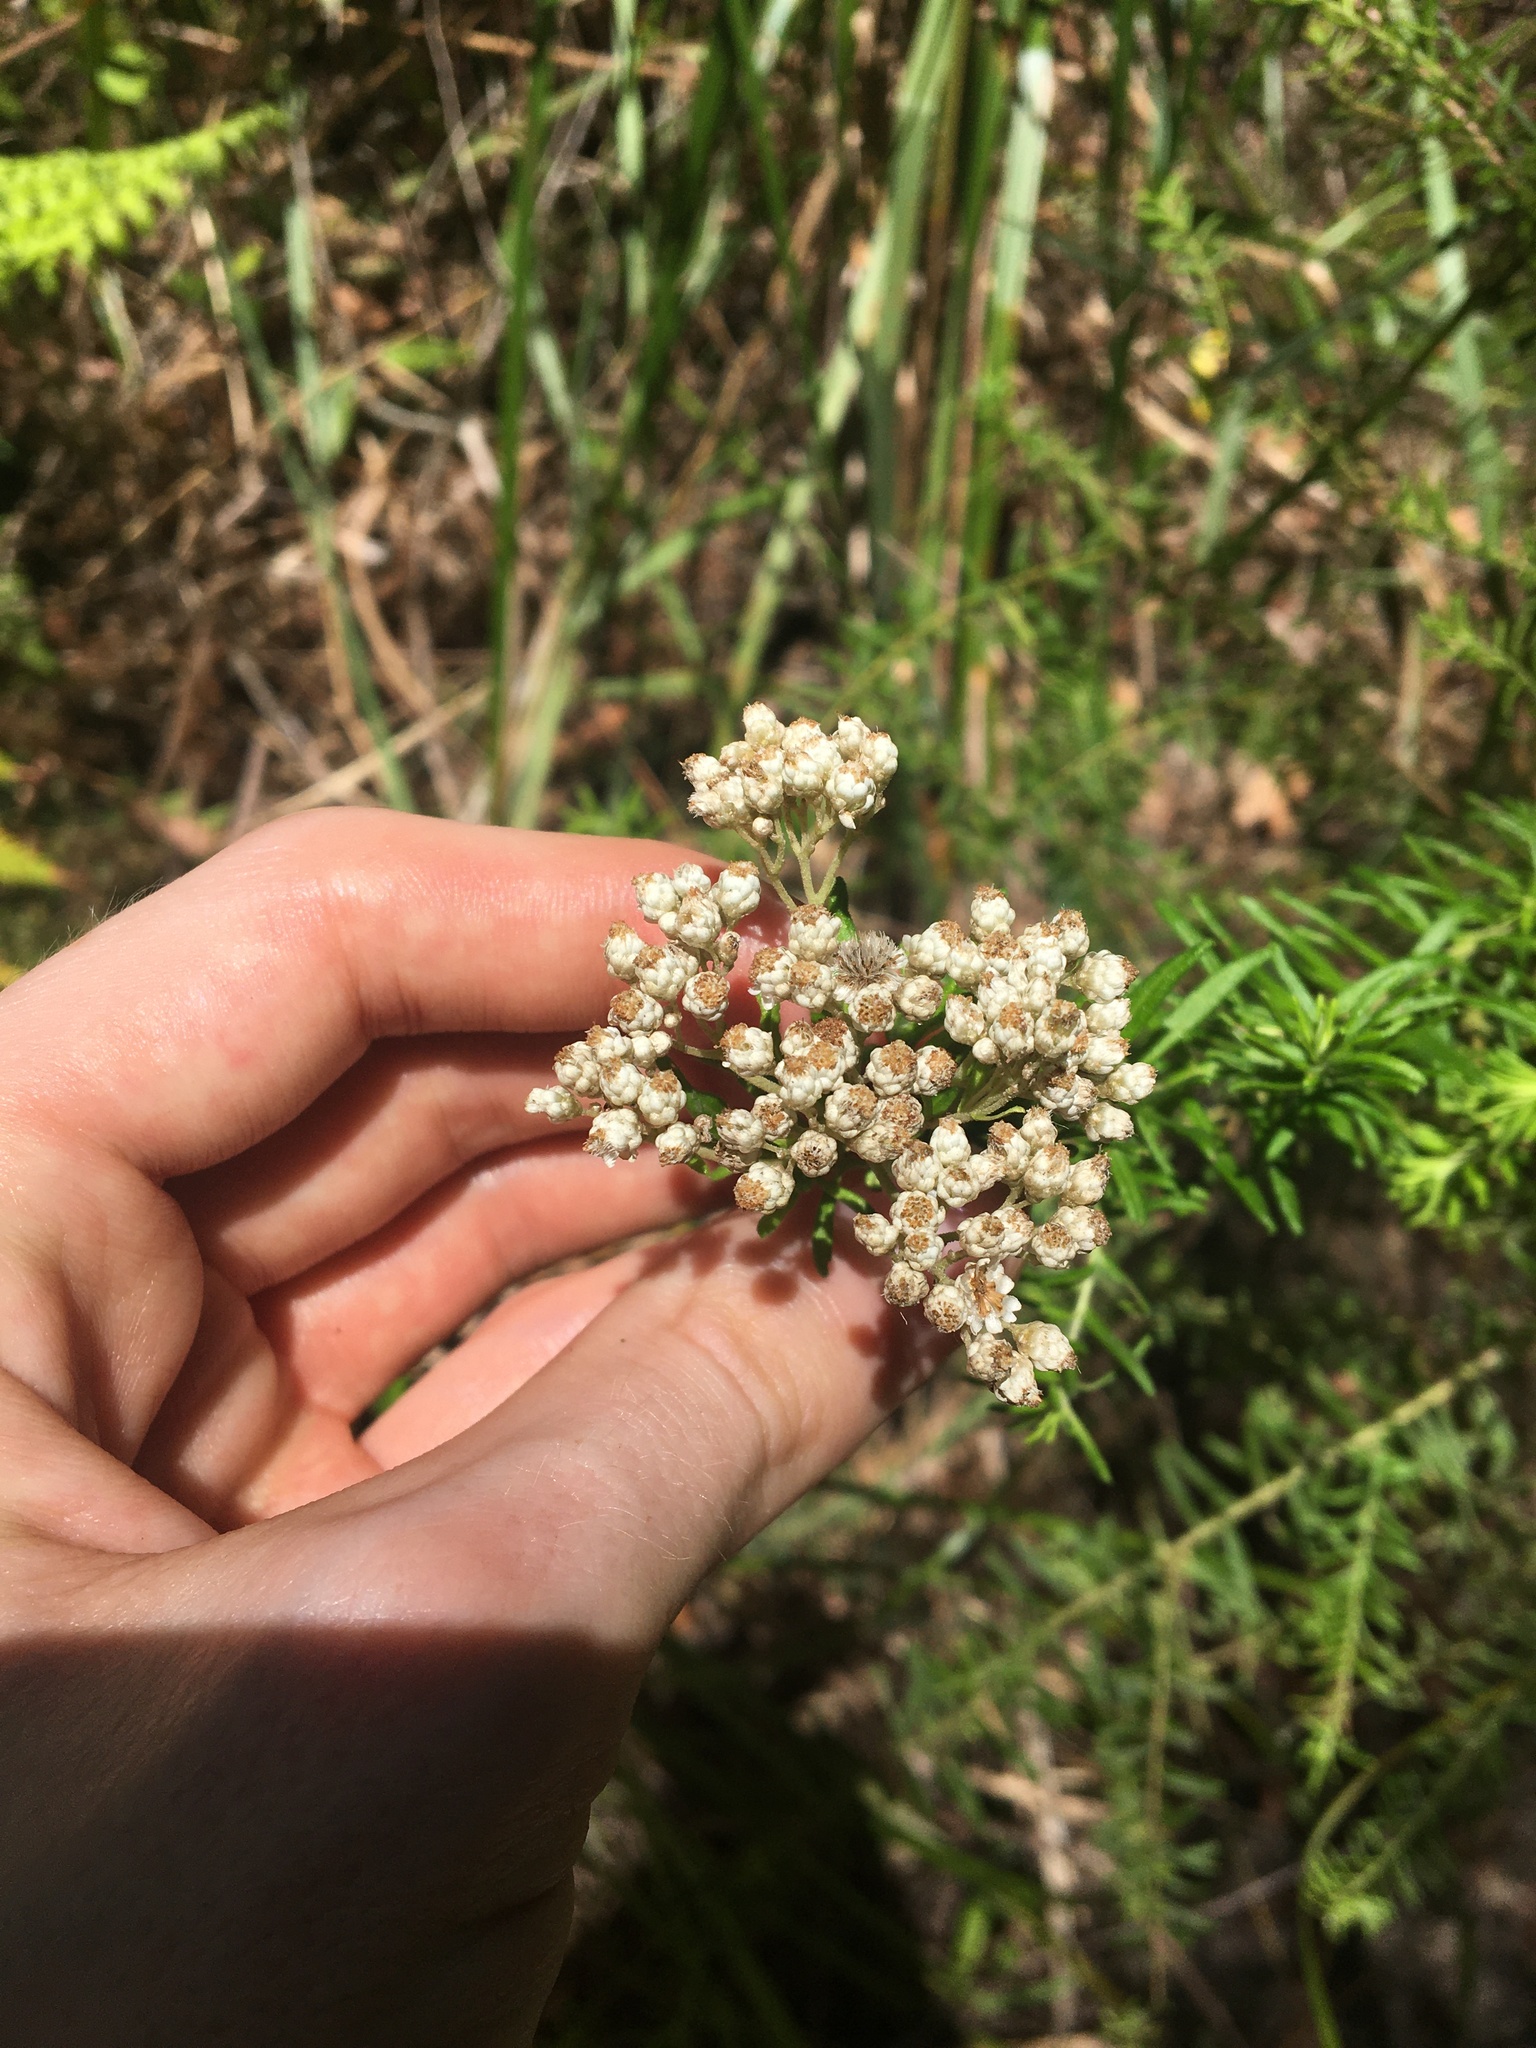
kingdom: Plantae
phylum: Tracheophyta
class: Magnoliopsida
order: Asterales
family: Asteraceae
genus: Ozothamnus
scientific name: Ozothamnus diosmifolius
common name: White-dogwood
